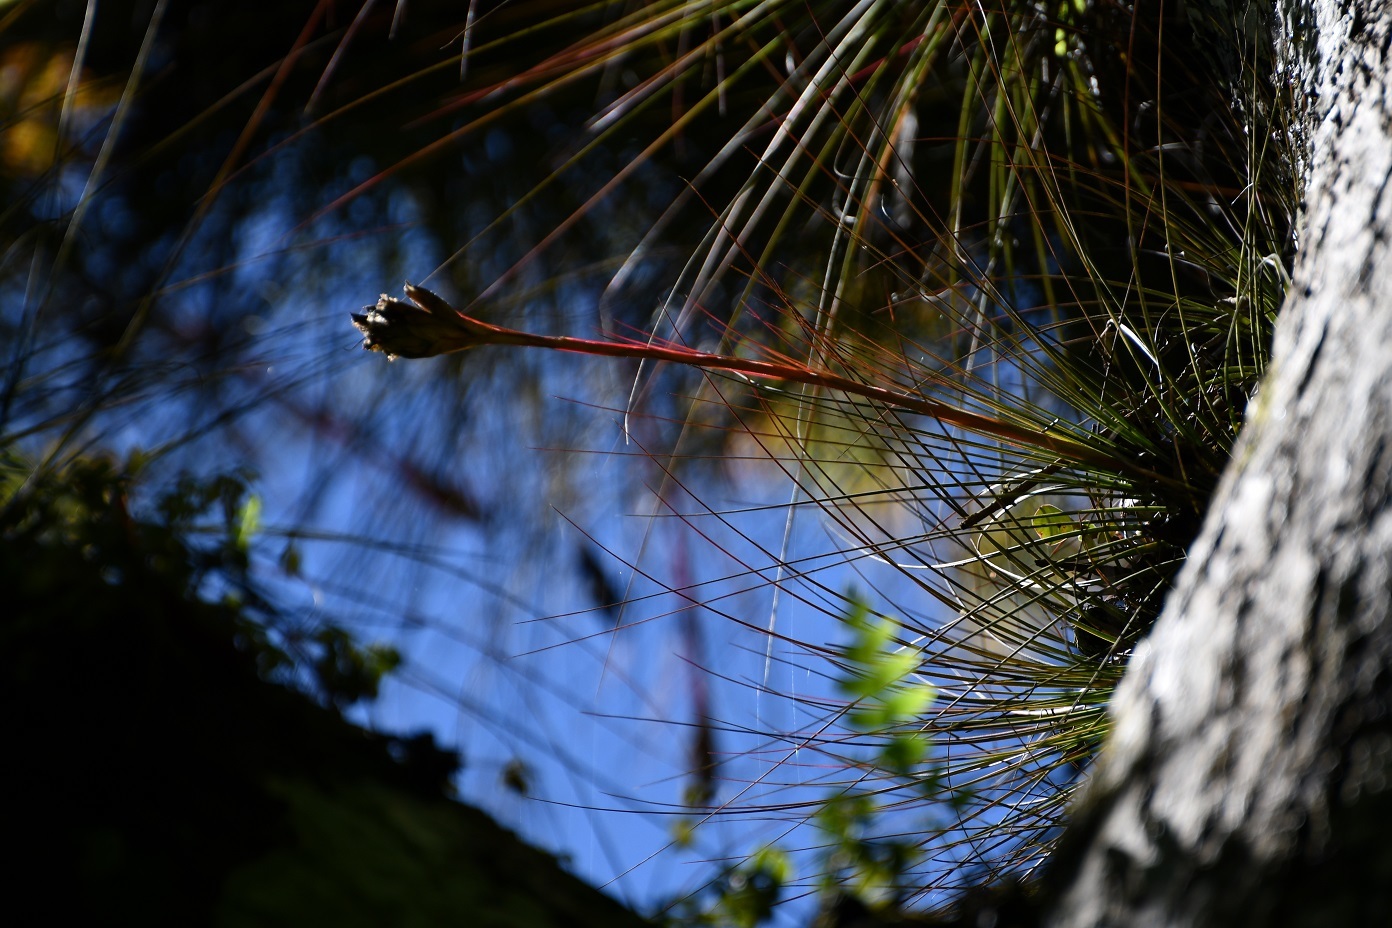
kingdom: Plantae
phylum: Tracheophyta
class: Liliopsida
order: Poales
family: Bromeliaceae
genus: Tillandsia
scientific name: Tillandsia juncea
